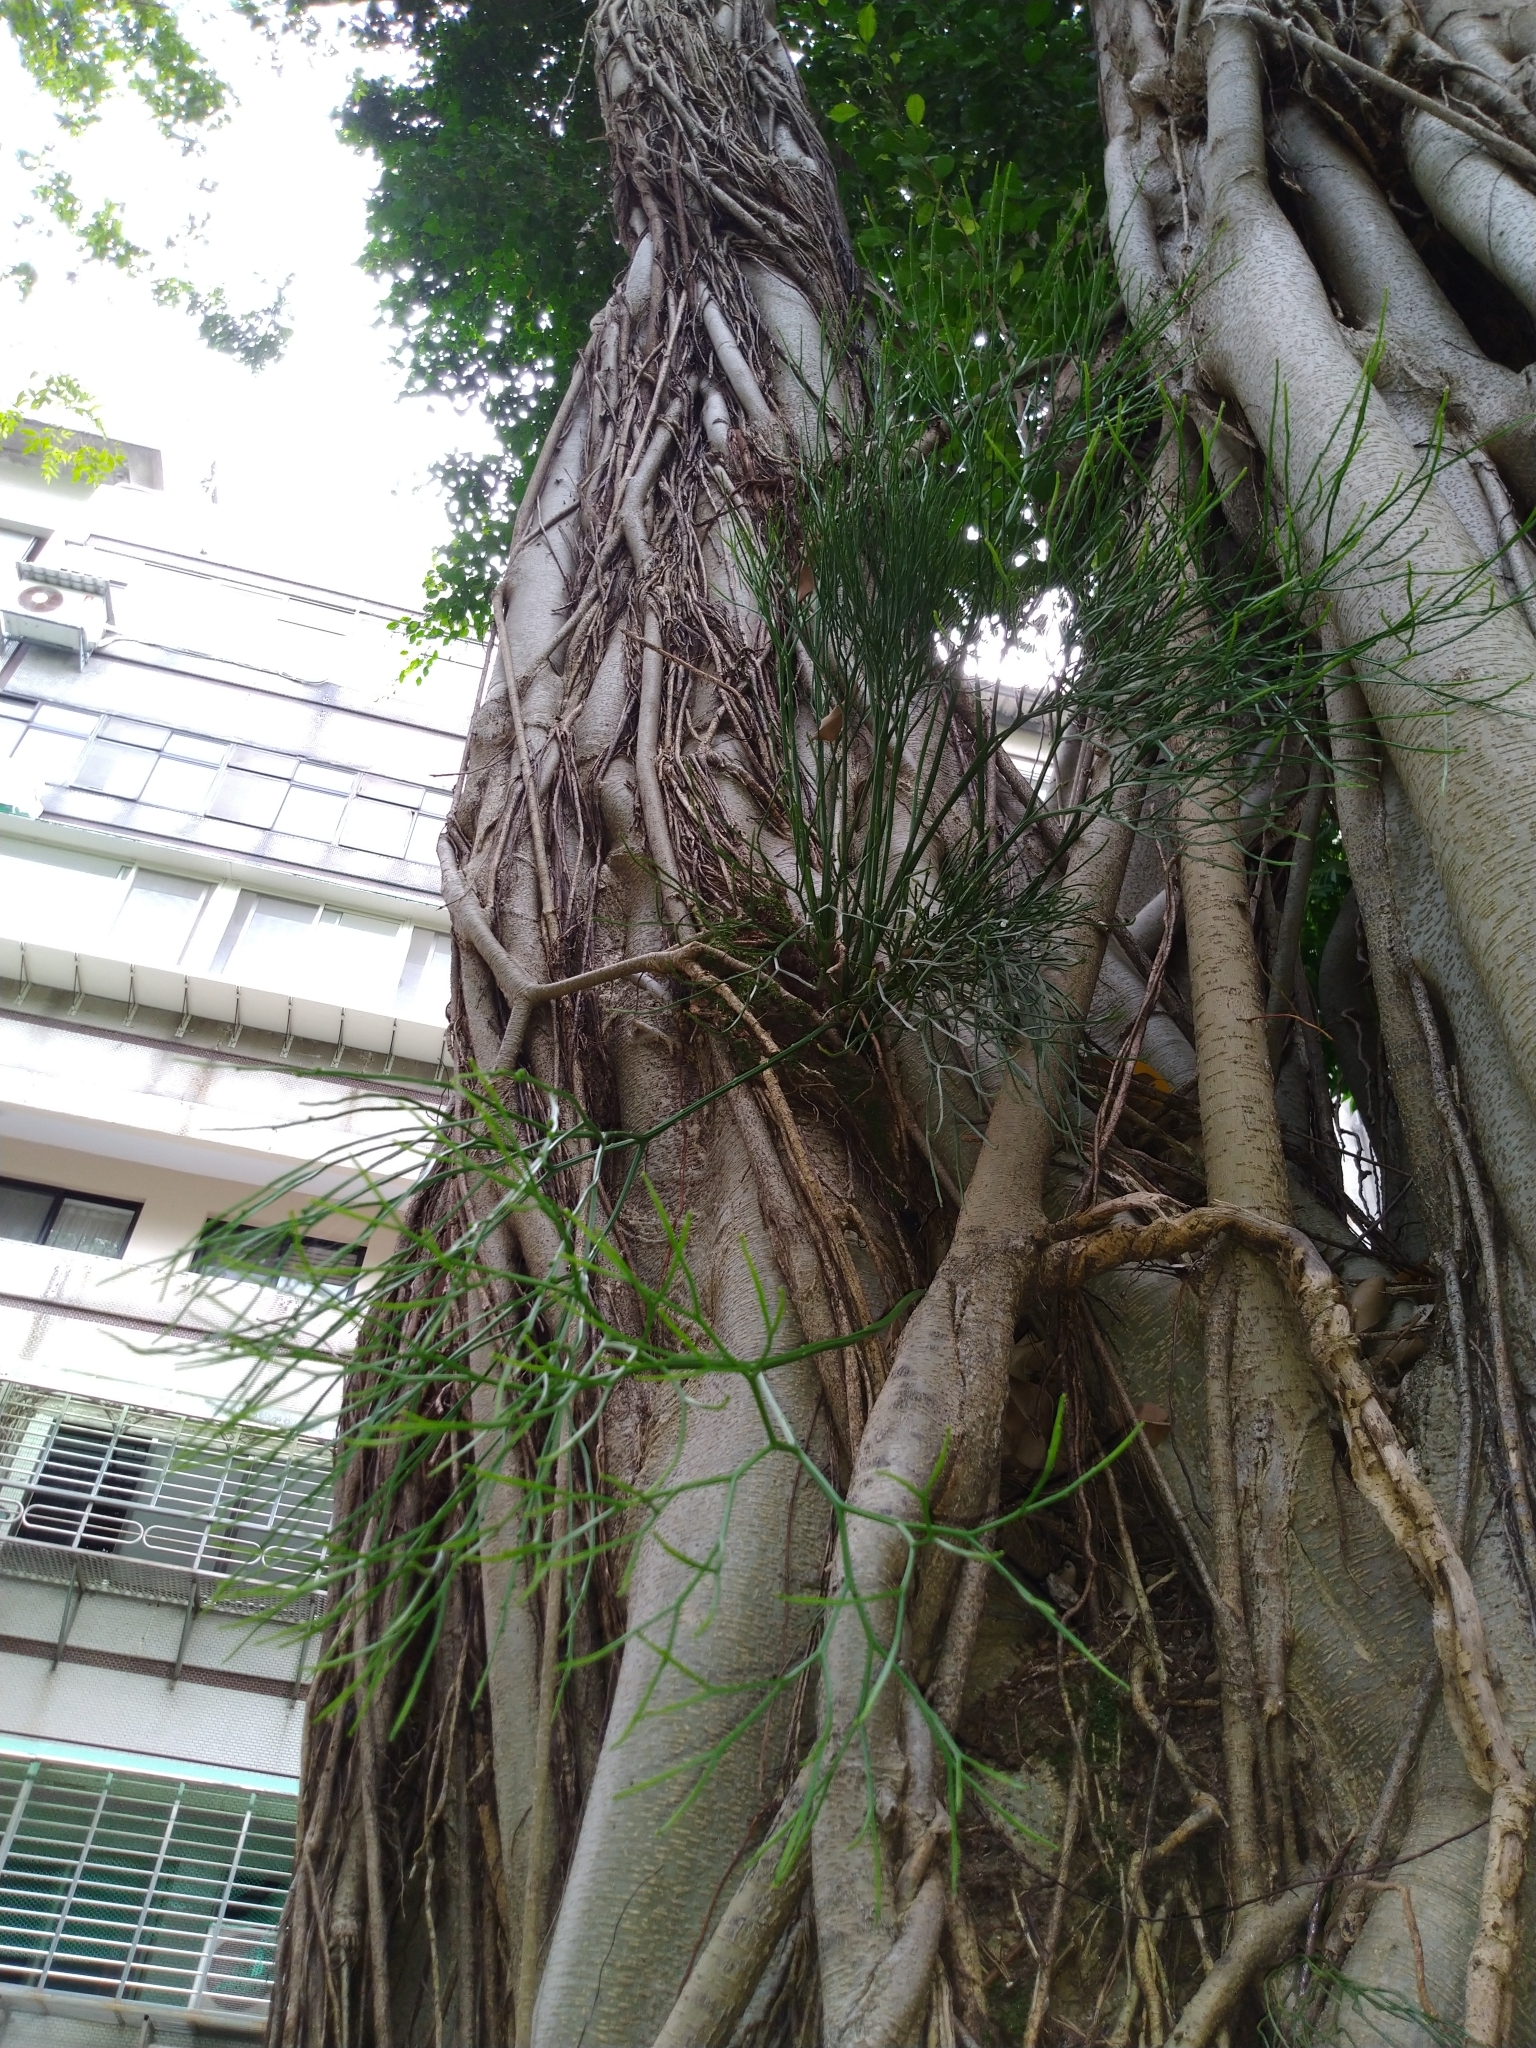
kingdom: Plantae
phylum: Tracheophyta
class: Polypodiopsida
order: Psilotales
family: Psilotaceae
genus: Psilotum
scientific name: Psilotum nudum
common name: Skeleton fork fern
